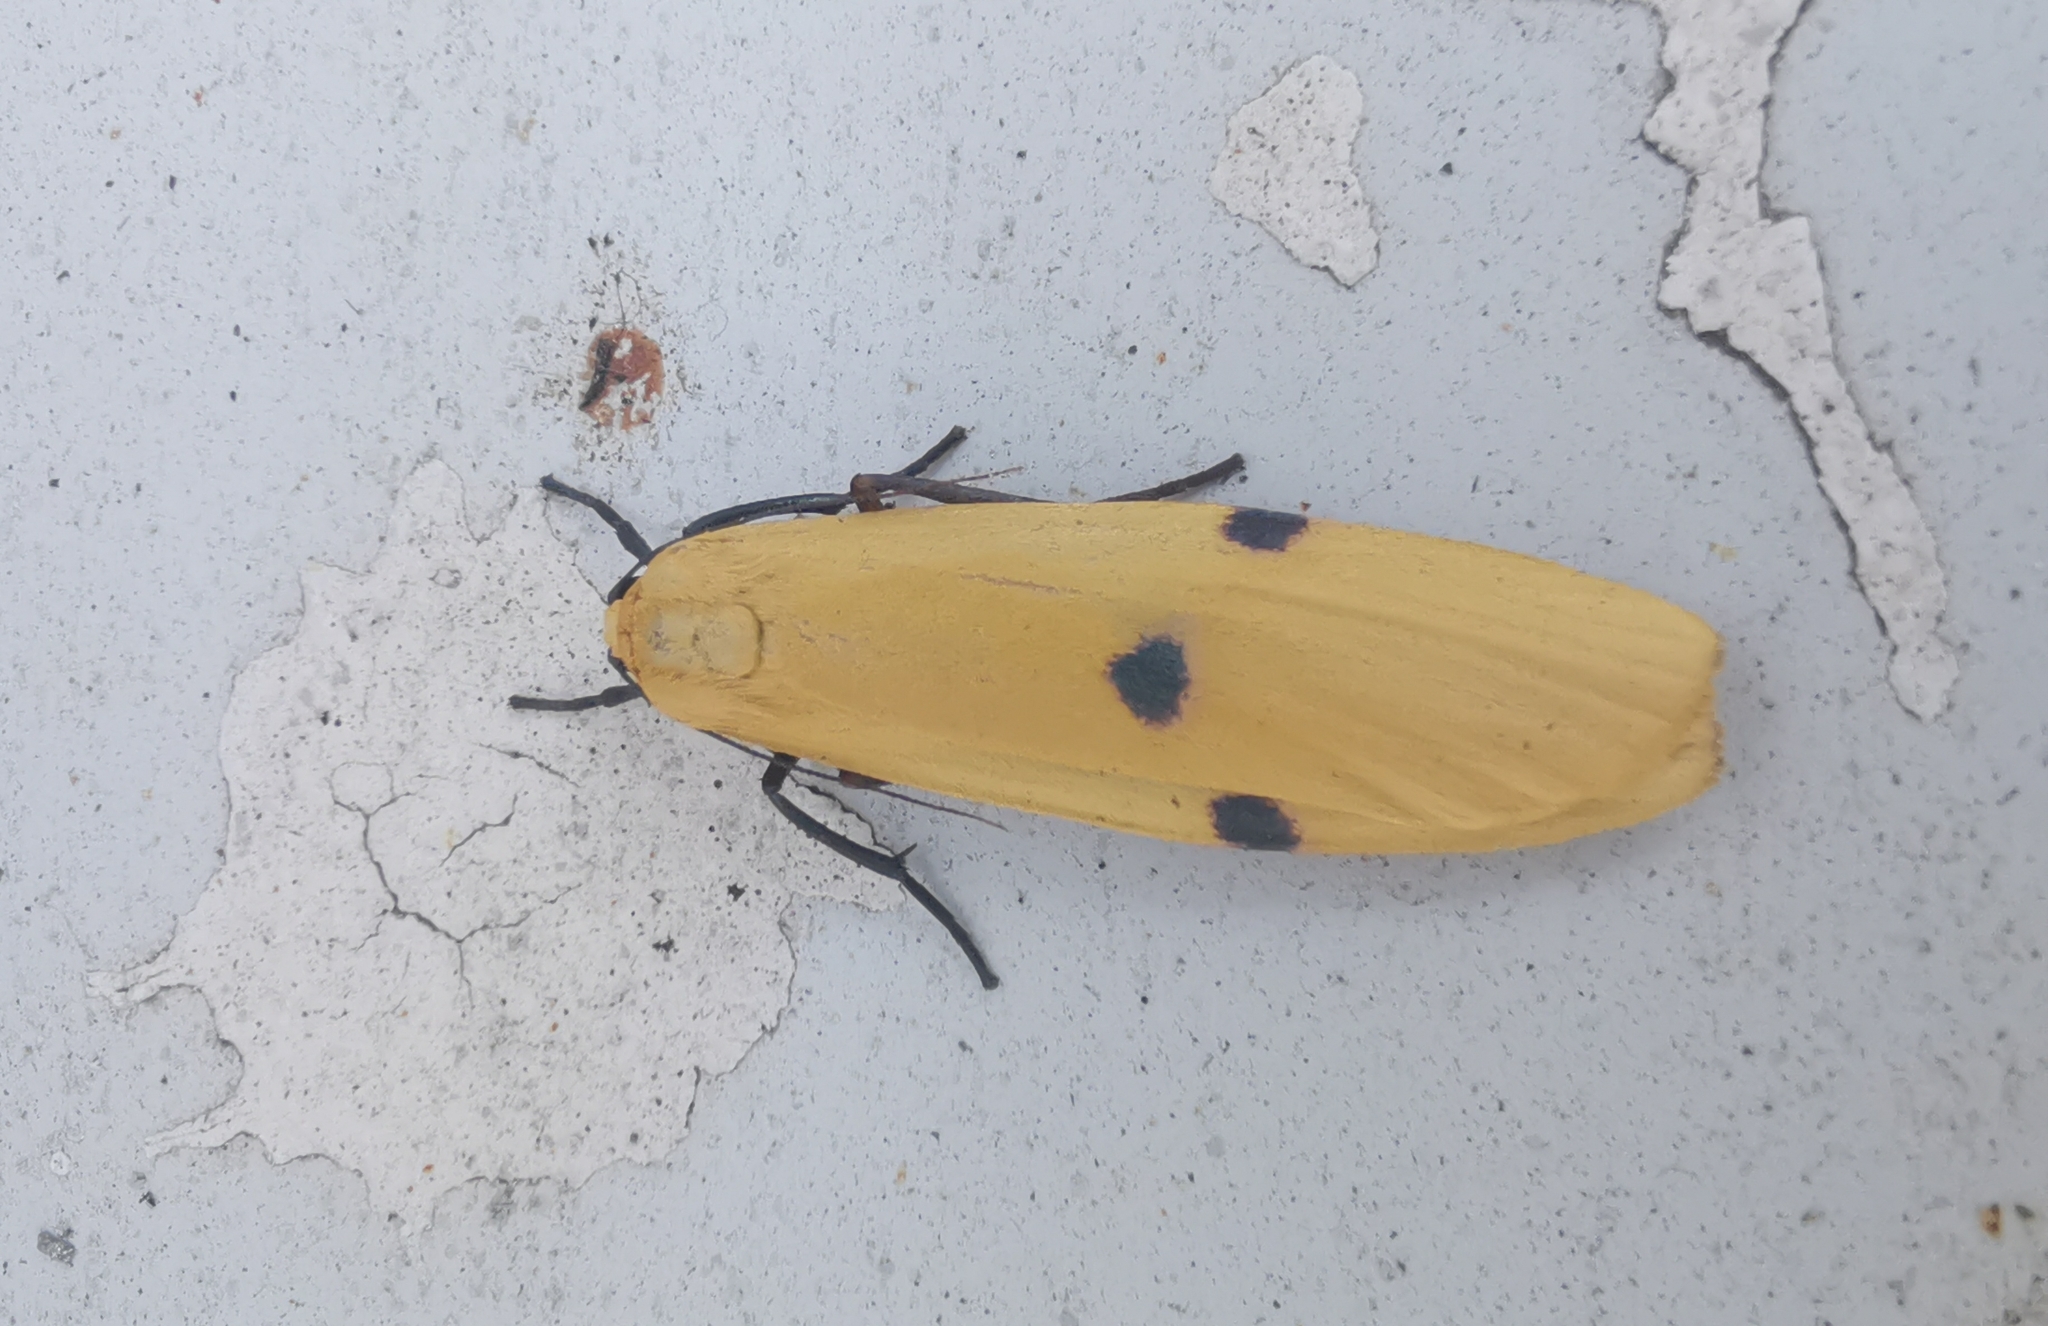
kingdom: Animalia
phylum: Arthropoda
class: Insecta
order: Lepidoptera
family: Erebidae
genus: Lithosia
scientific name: Lithosia quadra
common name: Four-spotted footman
